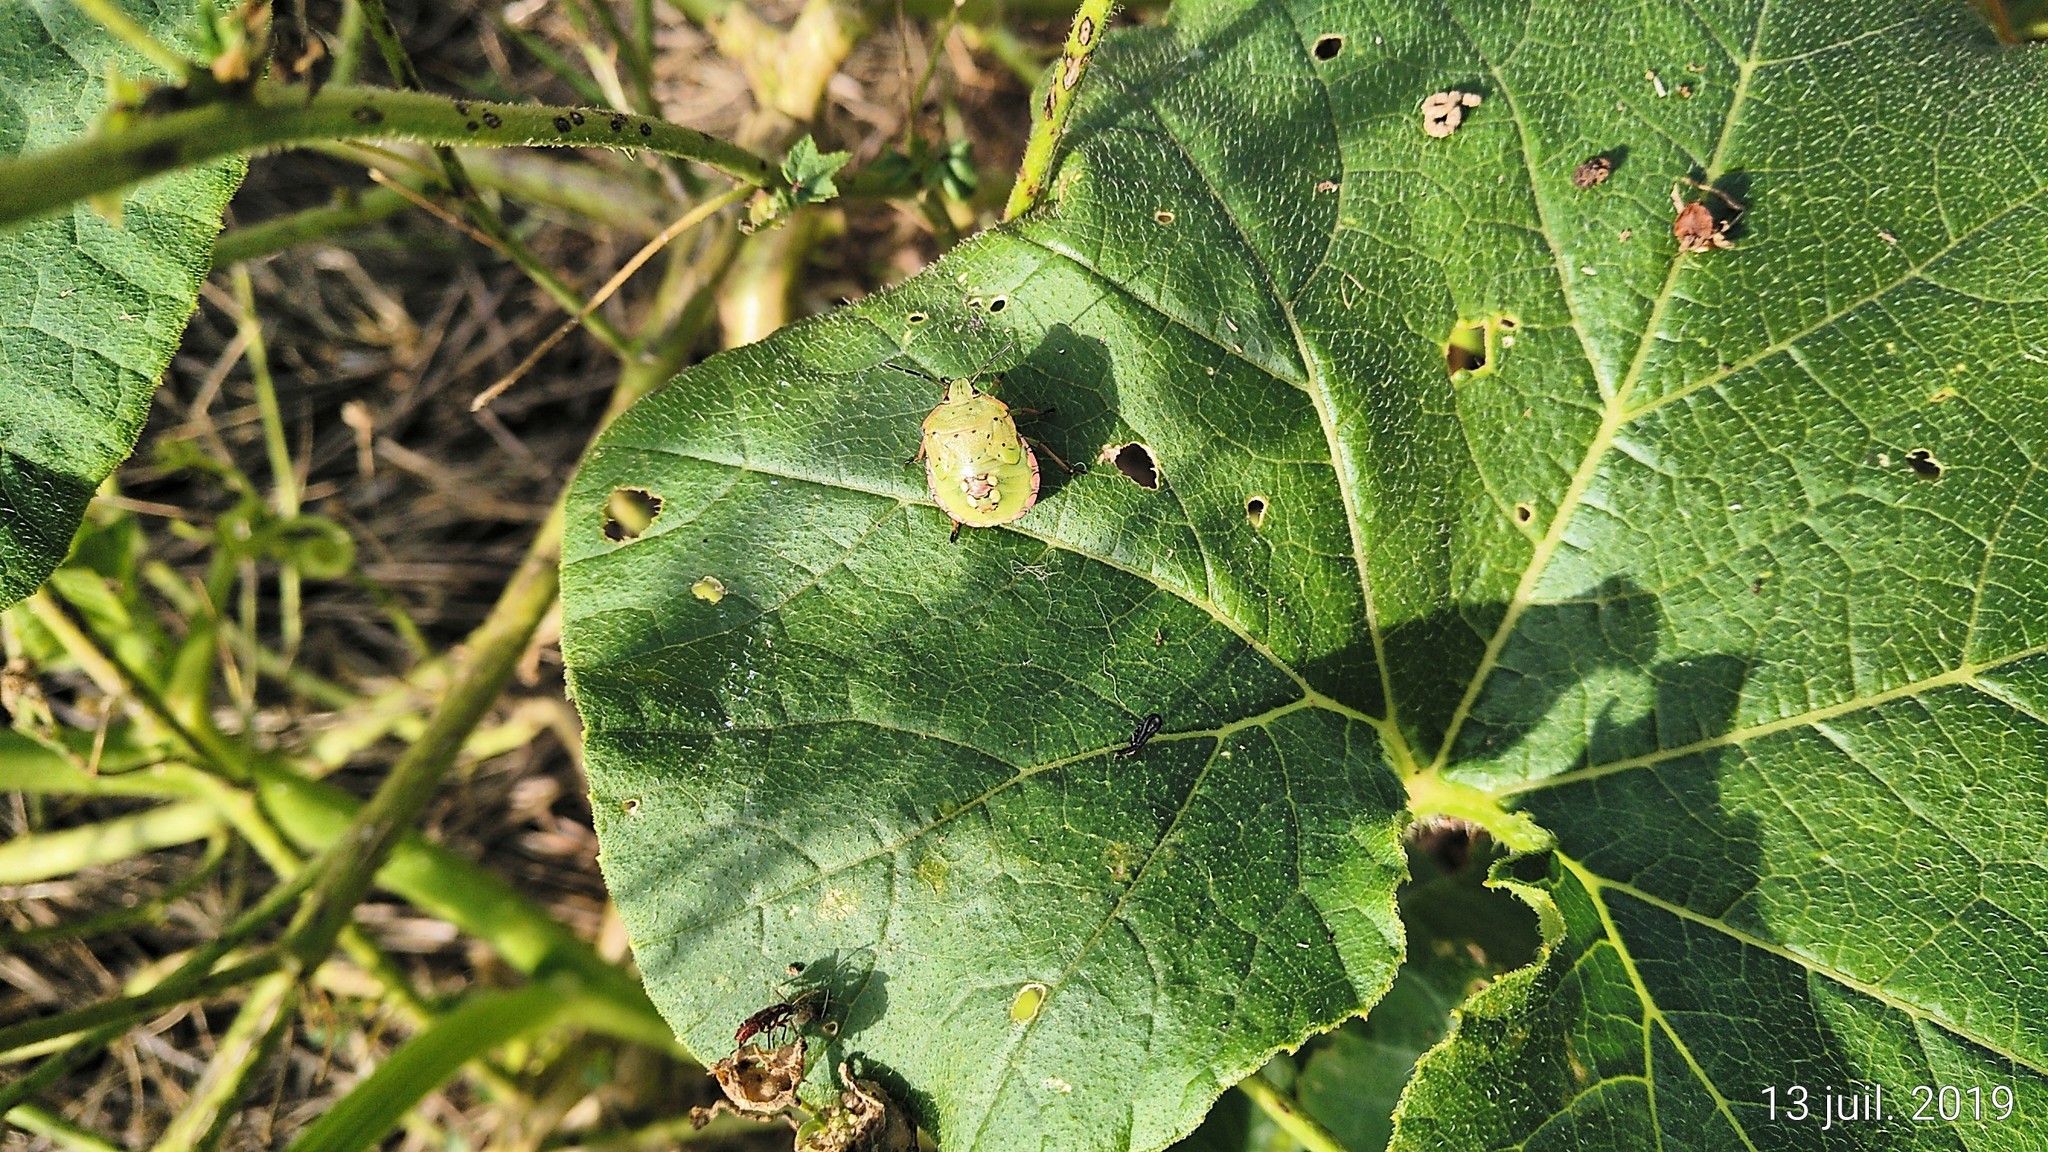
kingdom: Animalia
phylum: Arthropoda
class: Insecta
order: Hemiptera
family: Pentatomidae
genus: Nezara
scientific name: Nezara viridula
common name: Southern green stink bug
